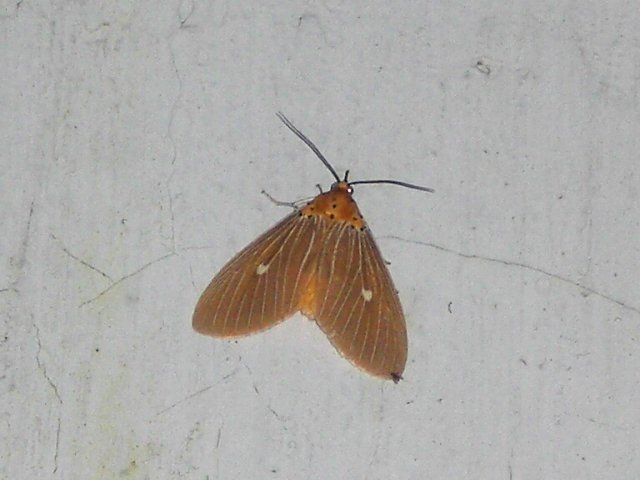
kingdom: Animalia
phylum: Arthropoda
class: Insecta
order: Lepidoptera
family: Erebidae
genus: Asota
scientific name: Asota caricae
